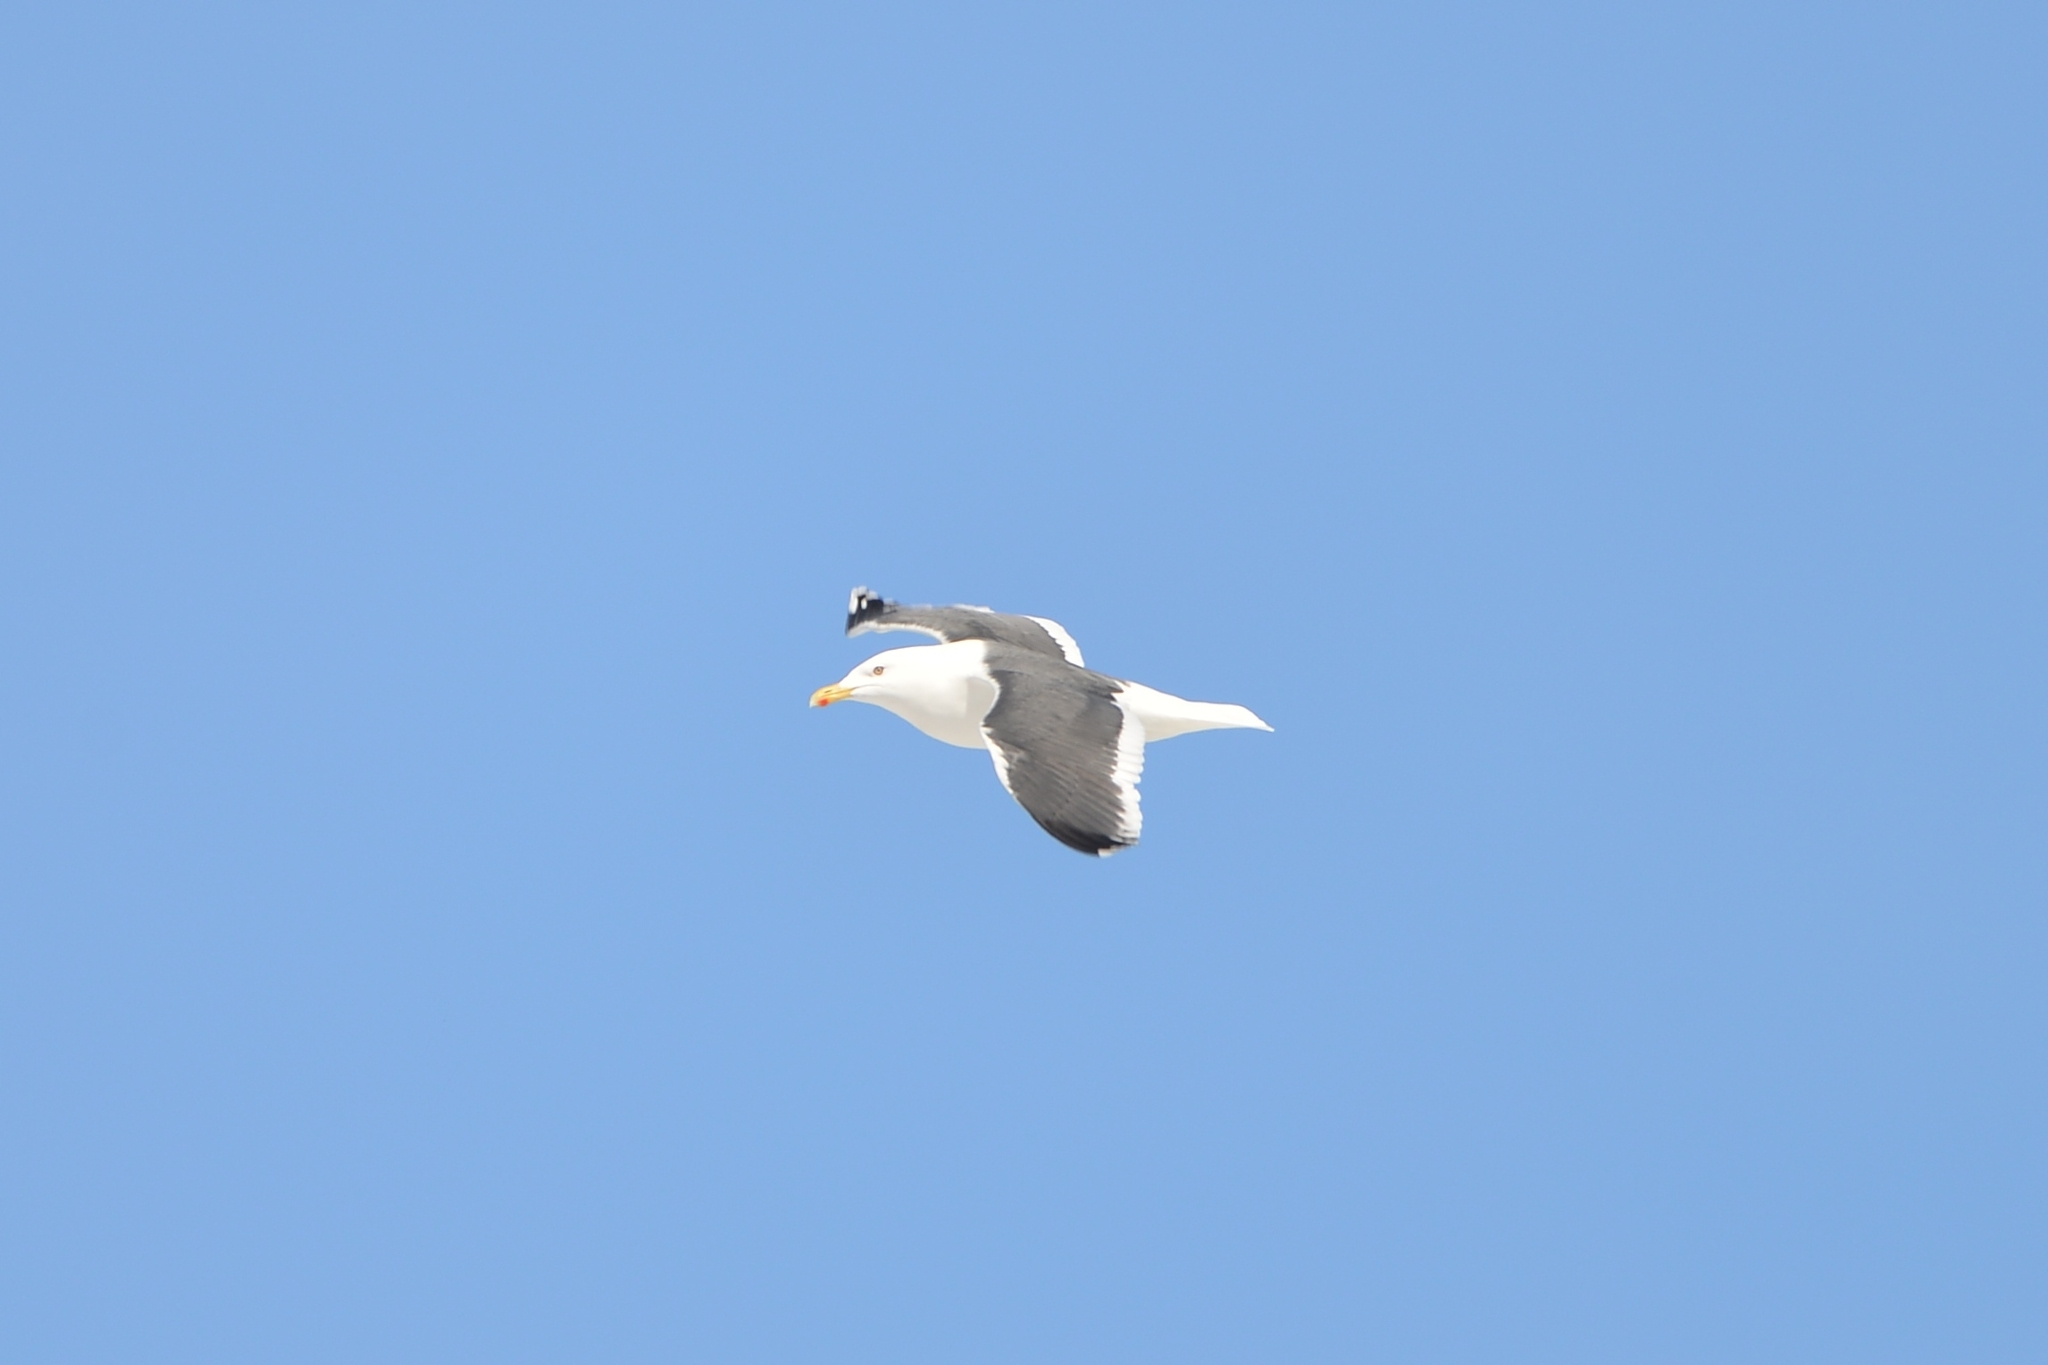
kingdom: Animalia
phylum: Chordata
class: Aves
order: Charadriiformes
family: Laridae
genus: Larus
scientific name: Larus schistisagus
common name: Slaty-backed gull
